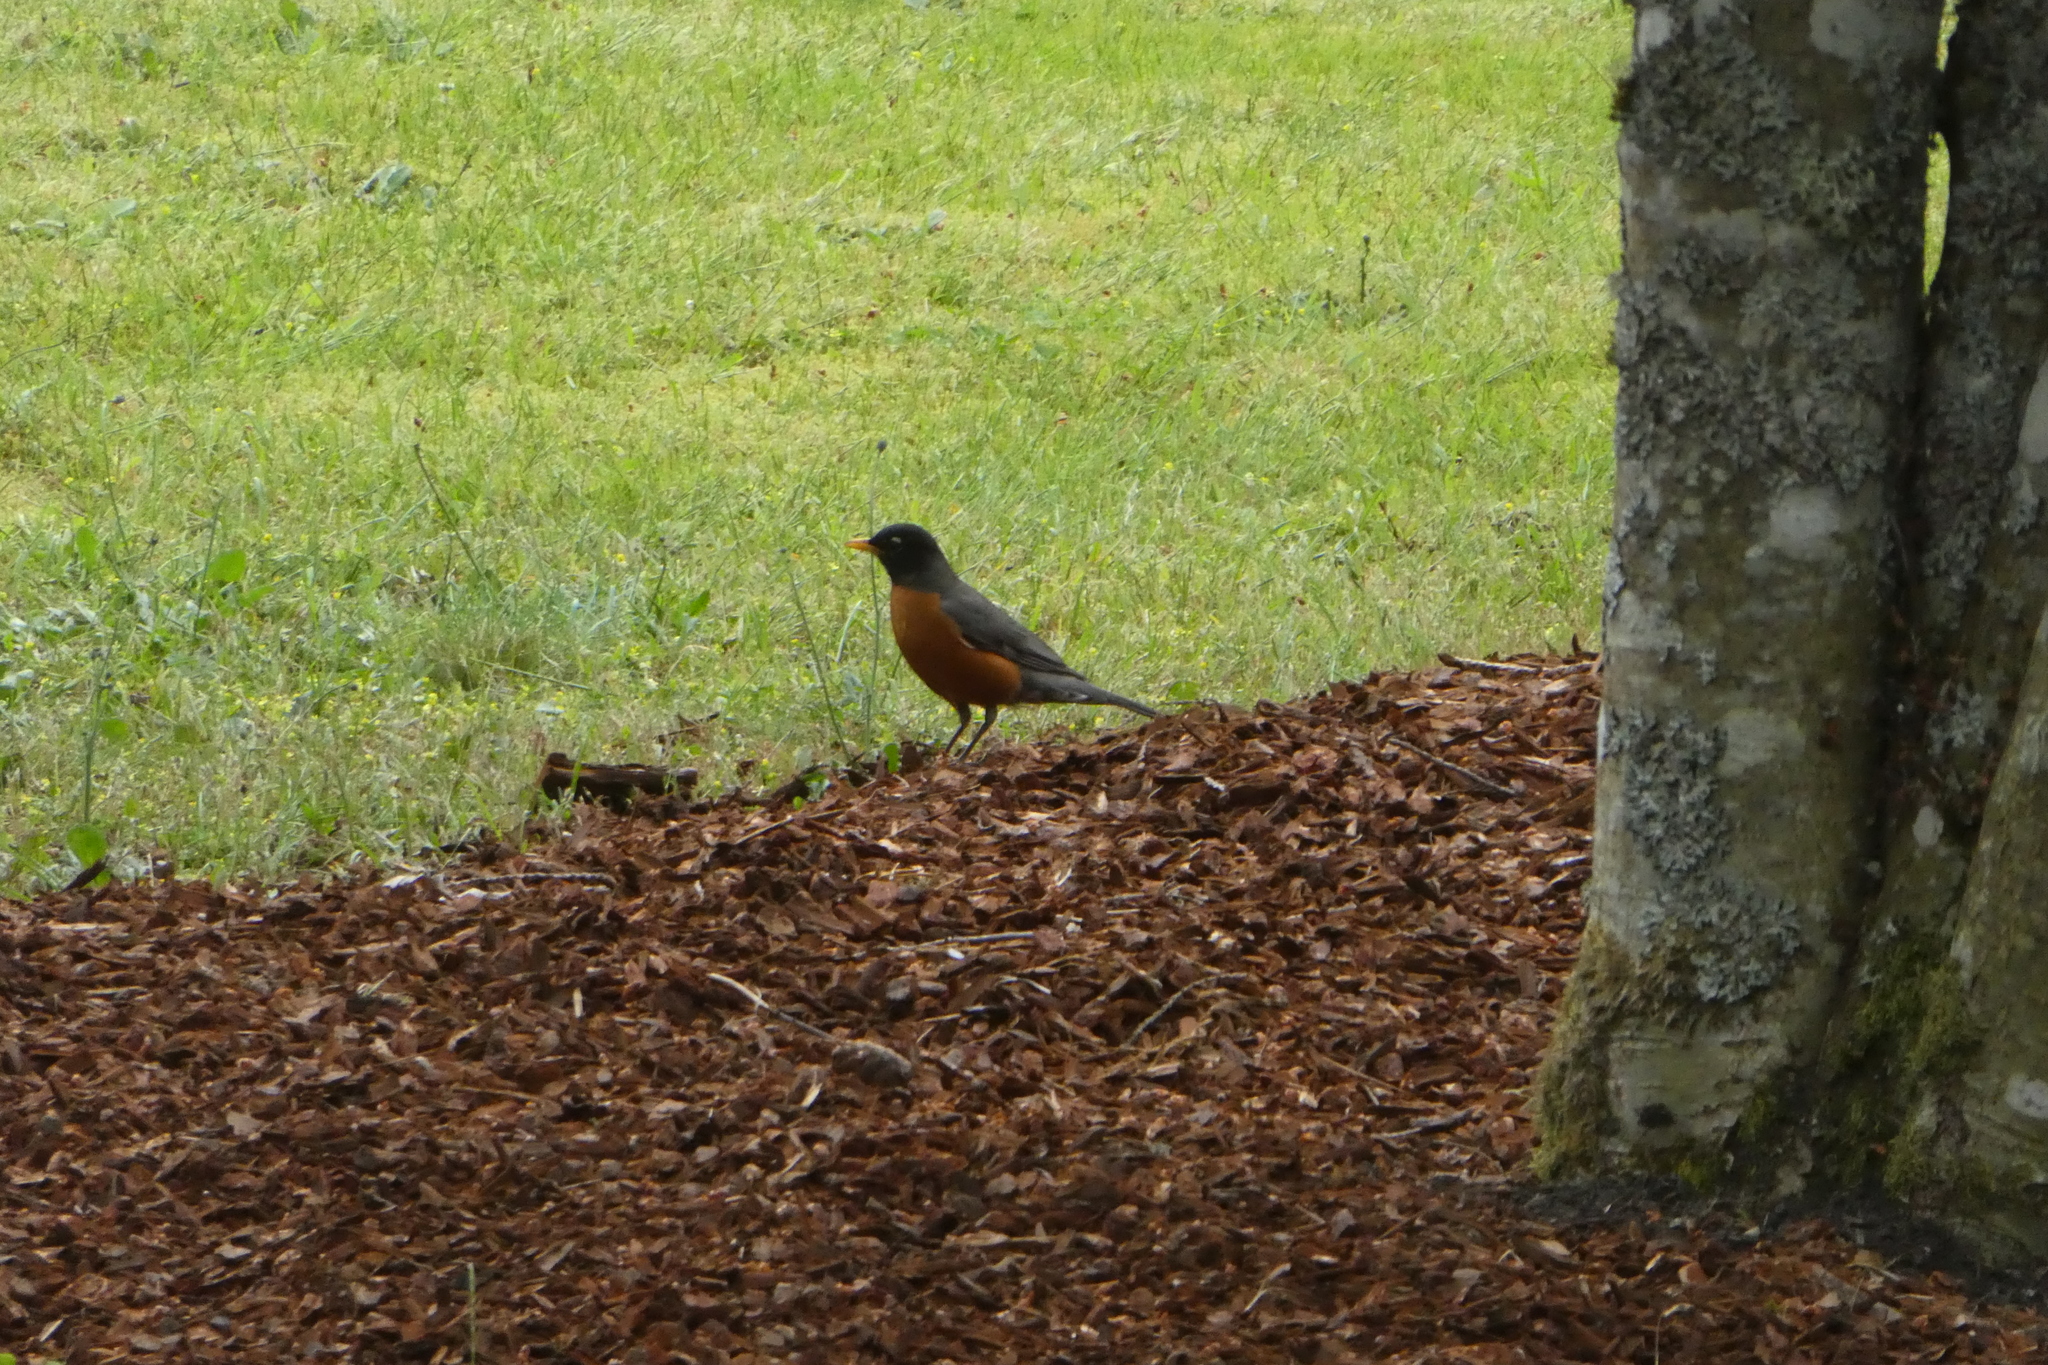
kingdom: Animalia
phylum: Chordata
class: Aves
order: Passeriformes
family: Turdidae
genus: Turdus
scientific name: Turdus migratorius
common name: American robin
